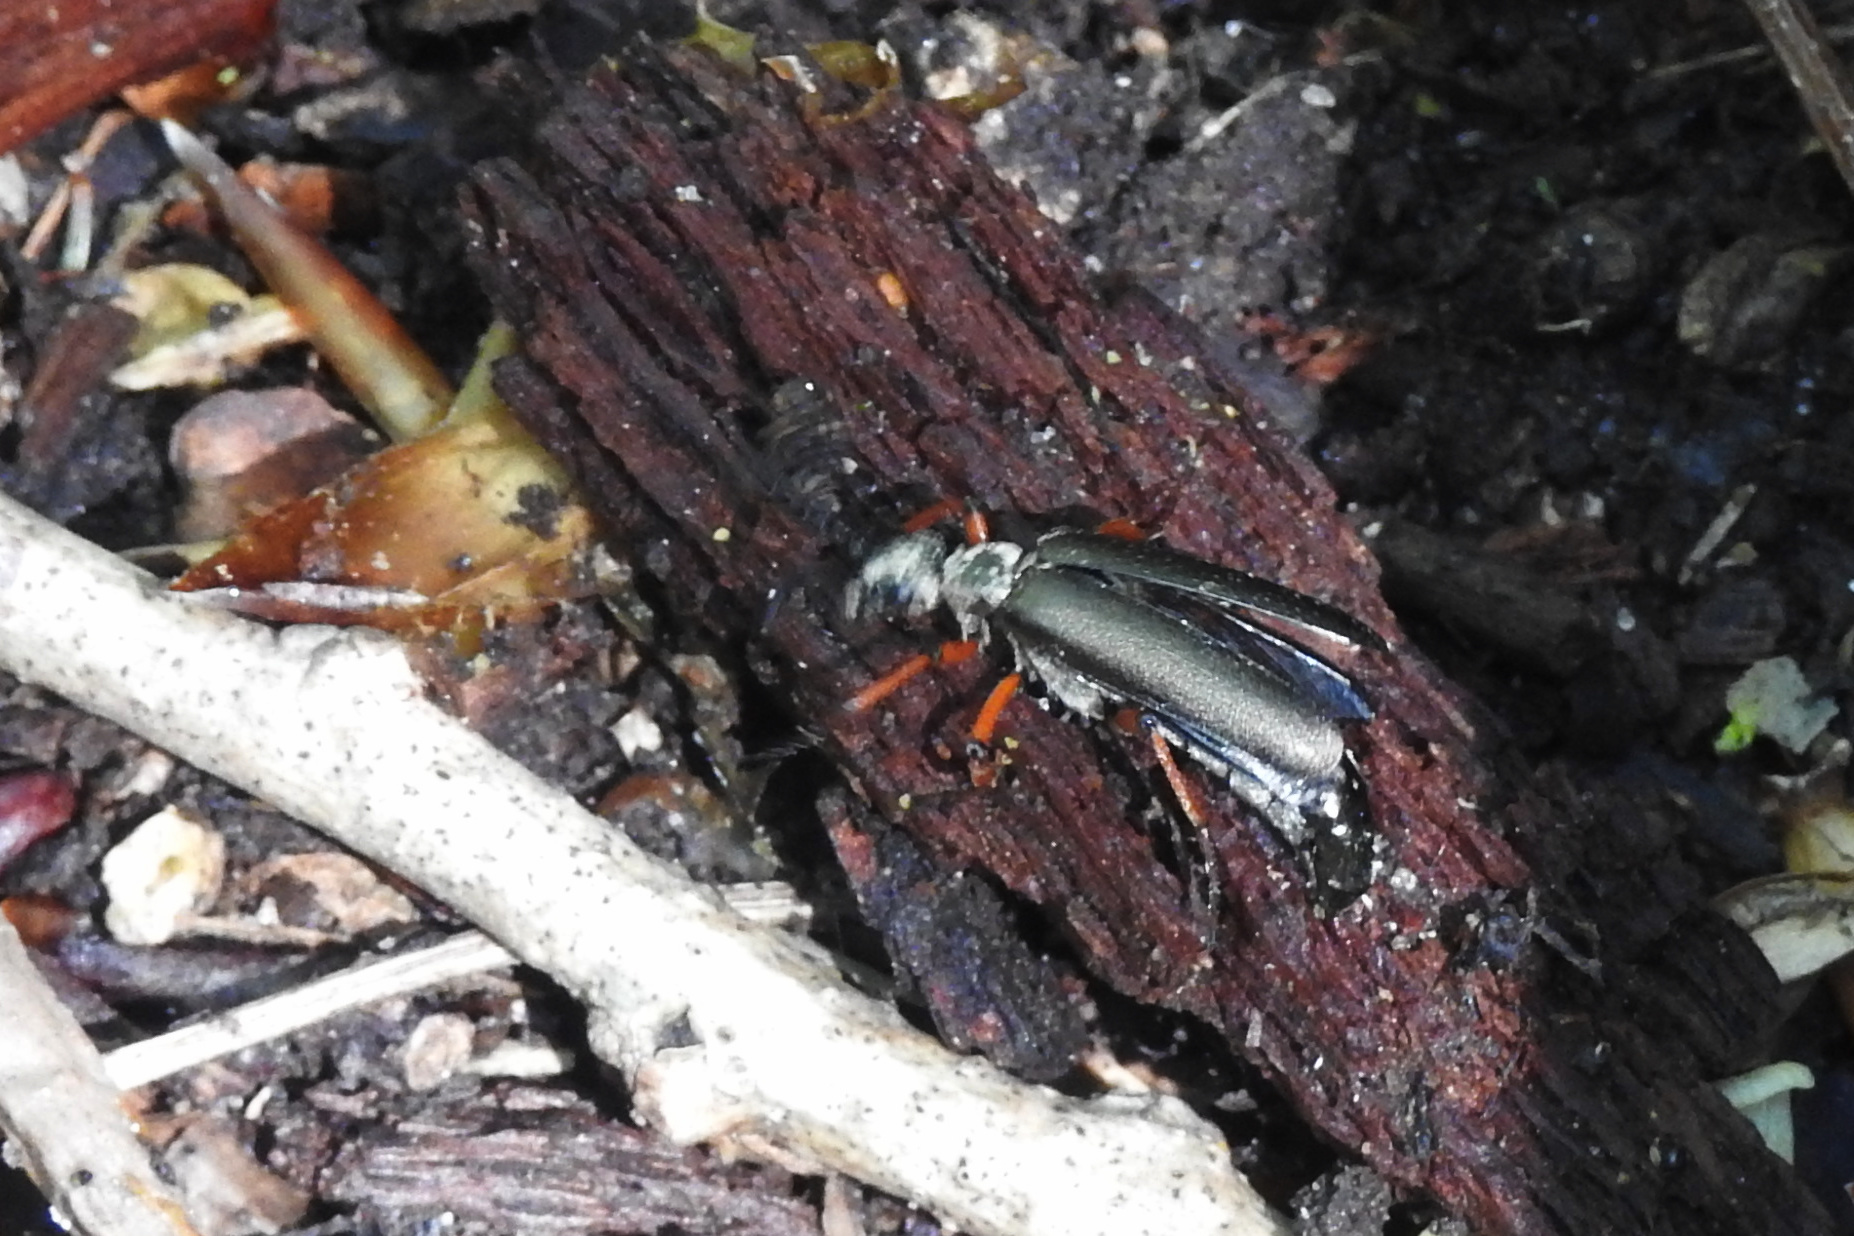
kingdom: Animalia
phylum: Arthropoda
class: Insecta
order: Coleoptera
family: Meloidae
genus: Lytta
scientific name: Lytta aenea
